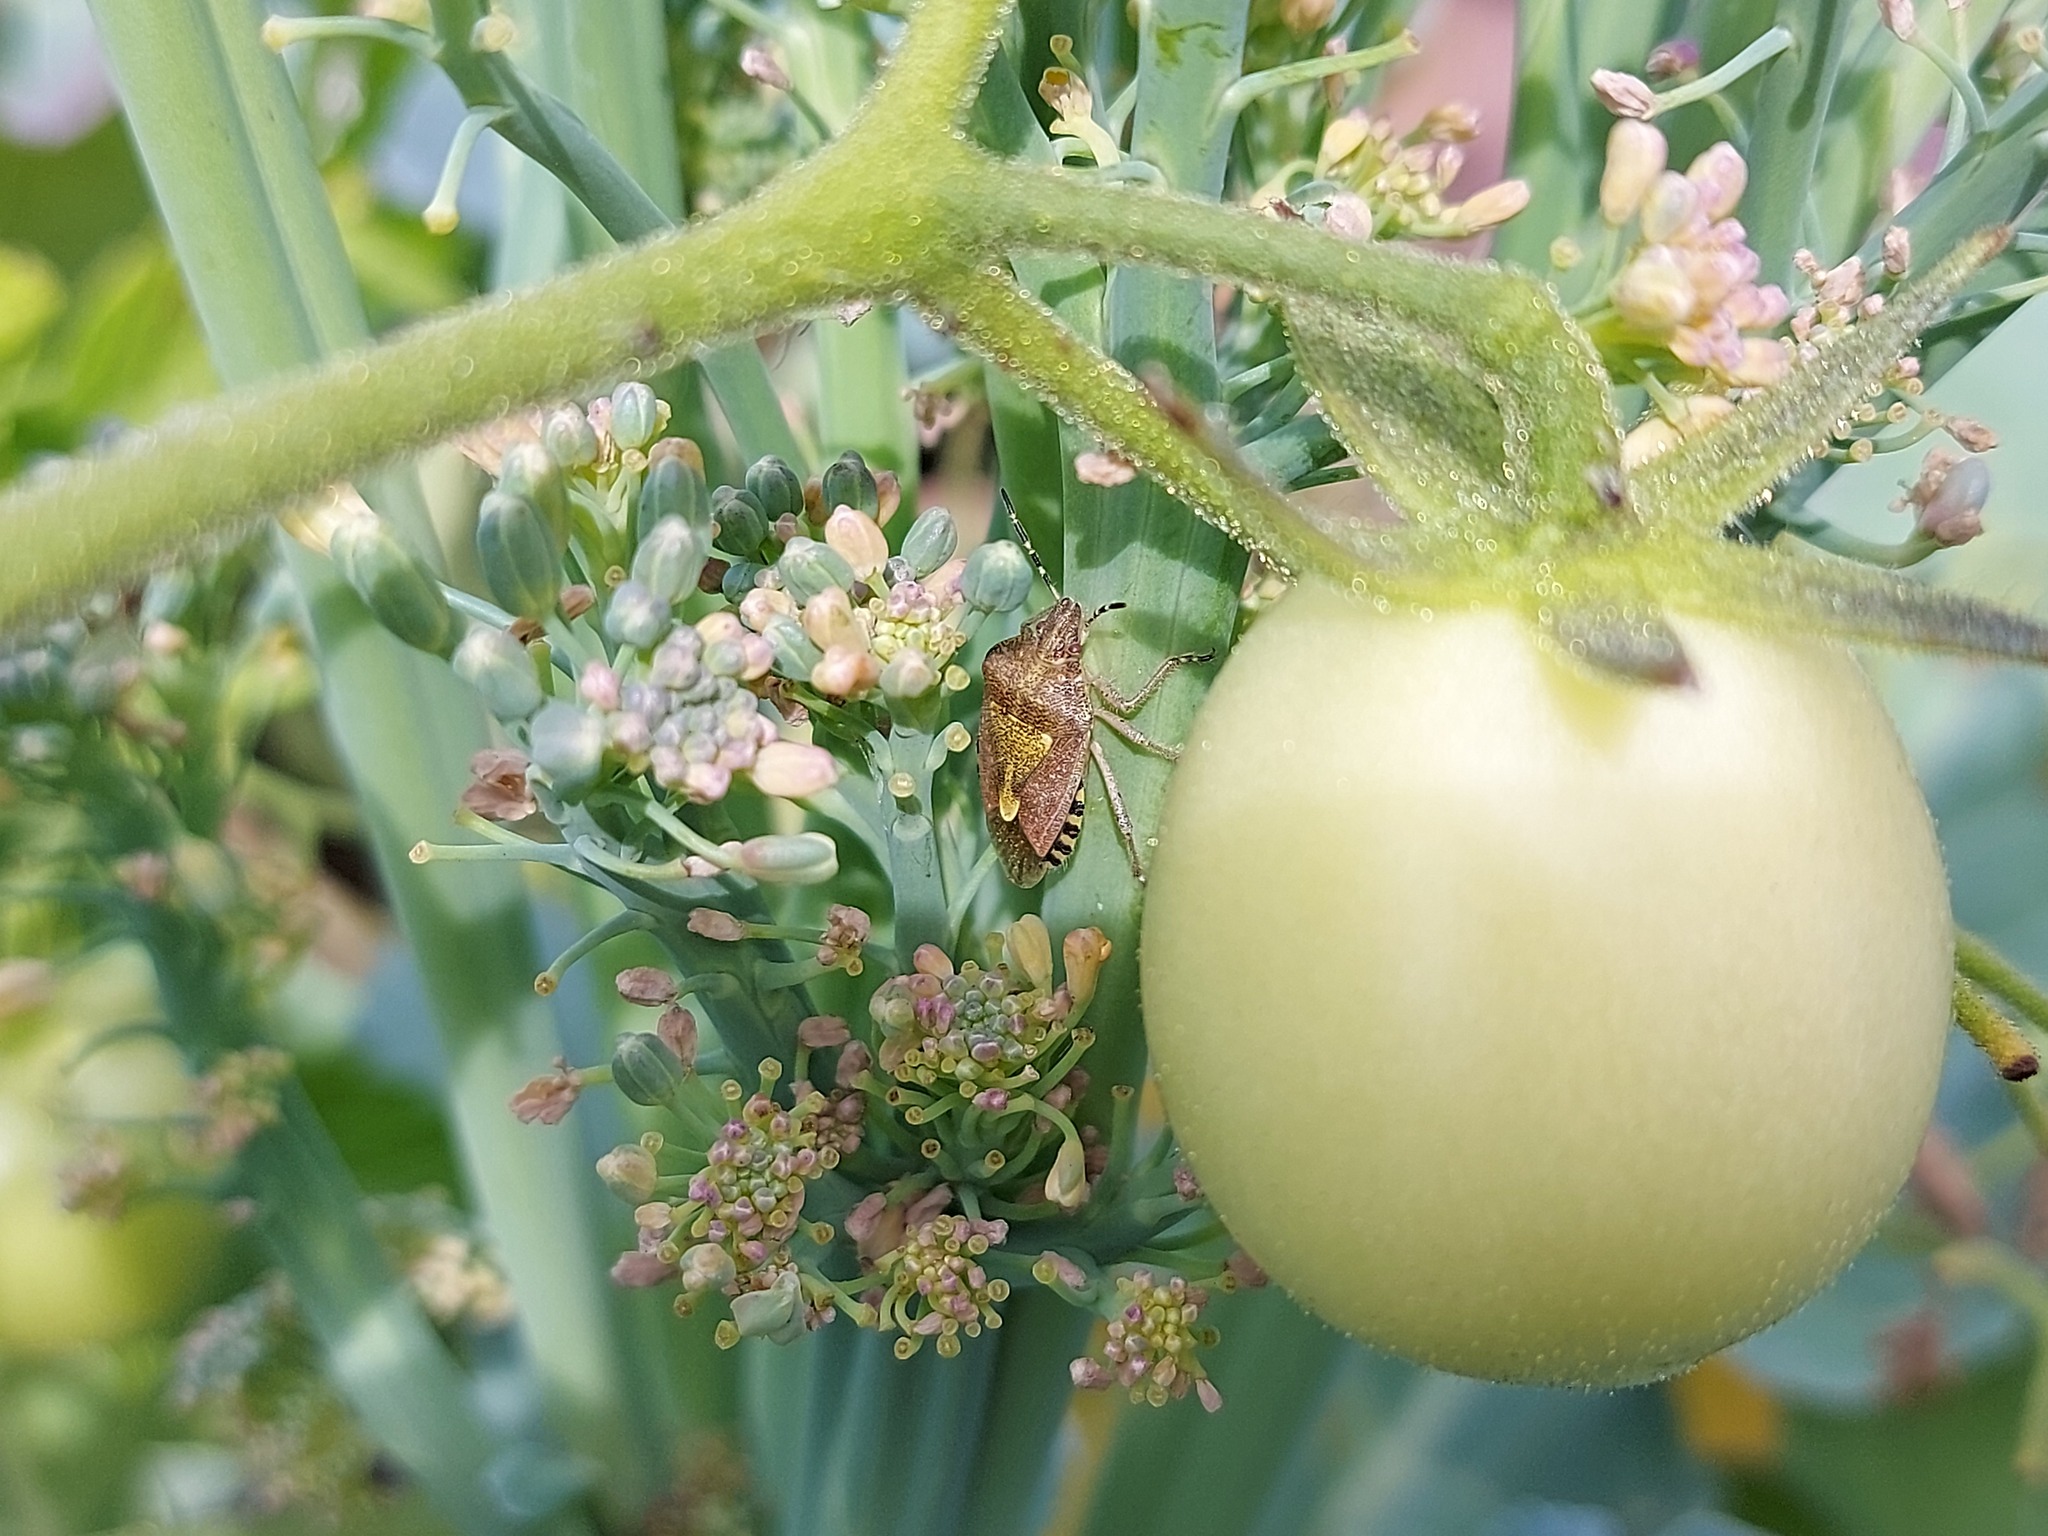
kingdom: Animalia
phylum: Arthropoda
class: Insecta
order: Hemiptera
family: Pentatomidae
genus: Dolycoris
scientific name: Dolycoris baccarum
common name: Sloe bug
